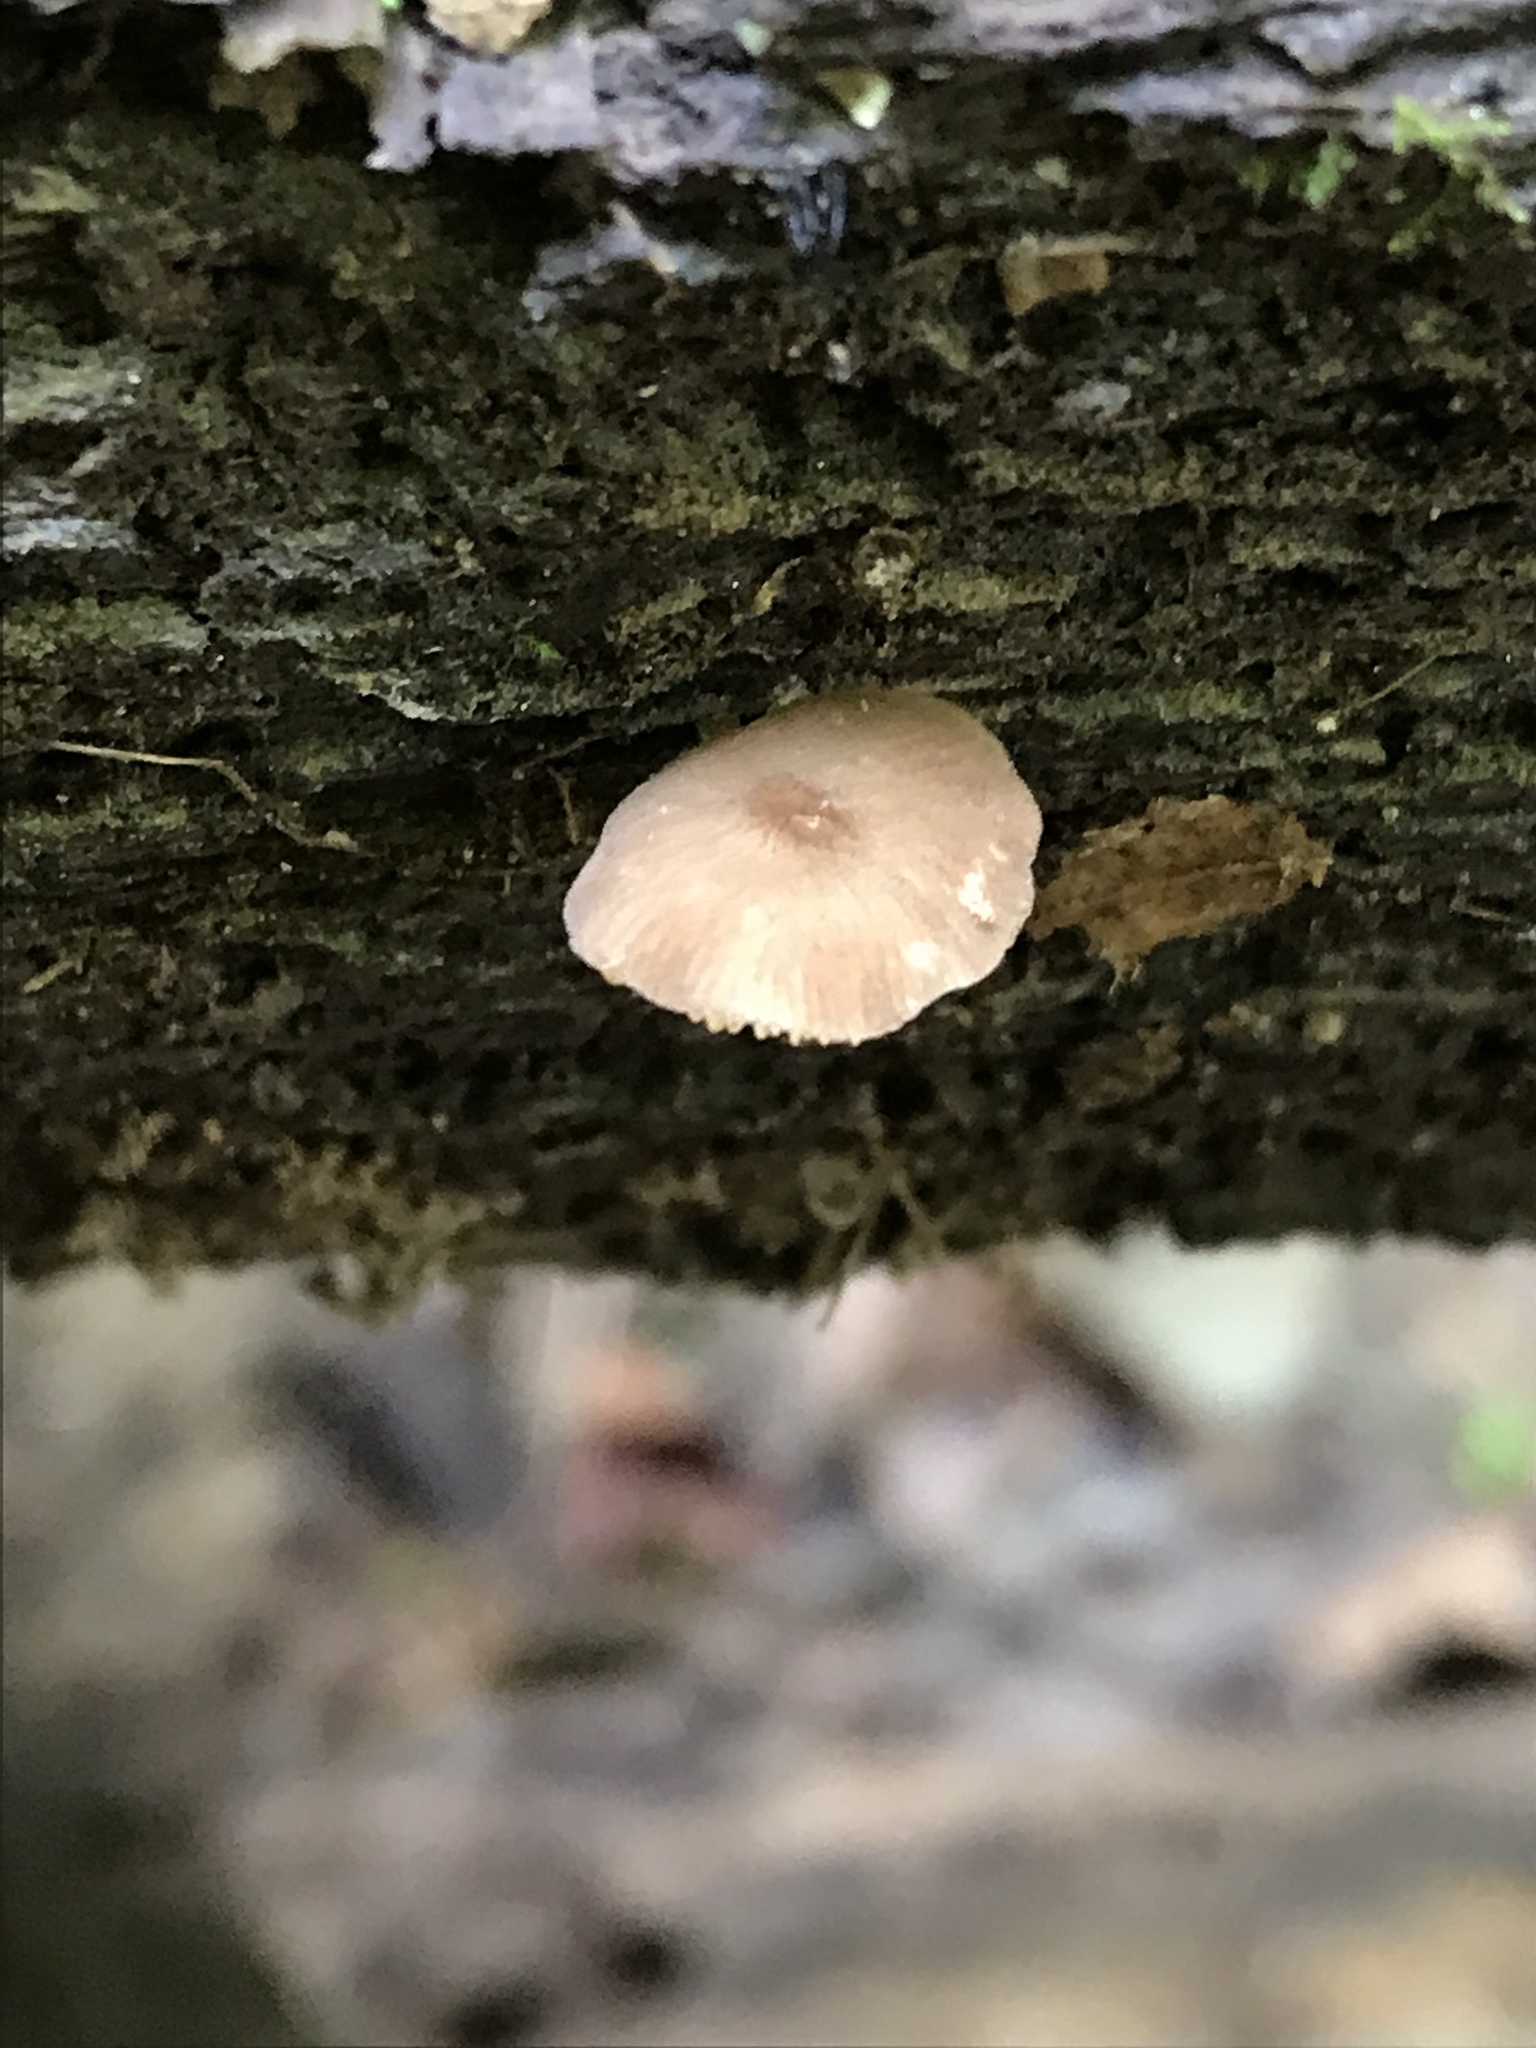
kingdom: Fungi
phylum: Basidiomycota
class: Agaricomycetes
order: Agaricales
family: Pluteaceae
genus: Pluteus
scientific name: Pluteus podospileus
